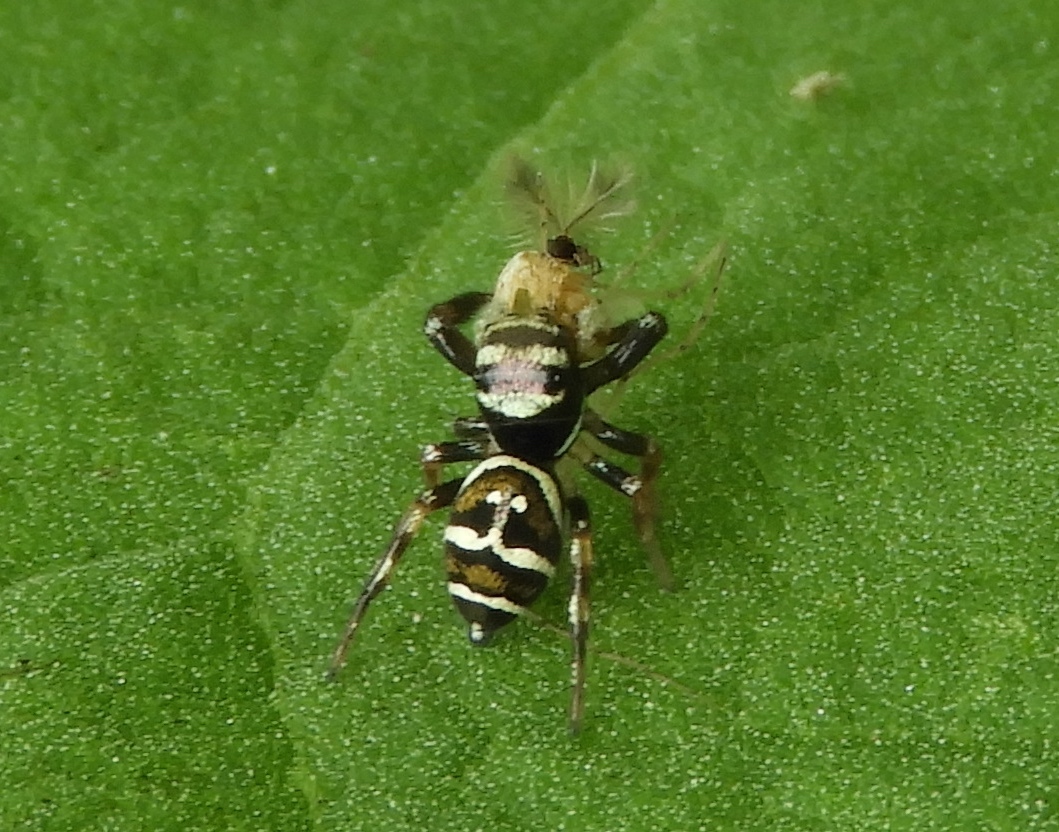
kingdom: Animalia
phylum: Arthropoda
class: Arachnida
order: Araneae
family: Salticidae
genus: Sassacus
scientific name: Sassacus
